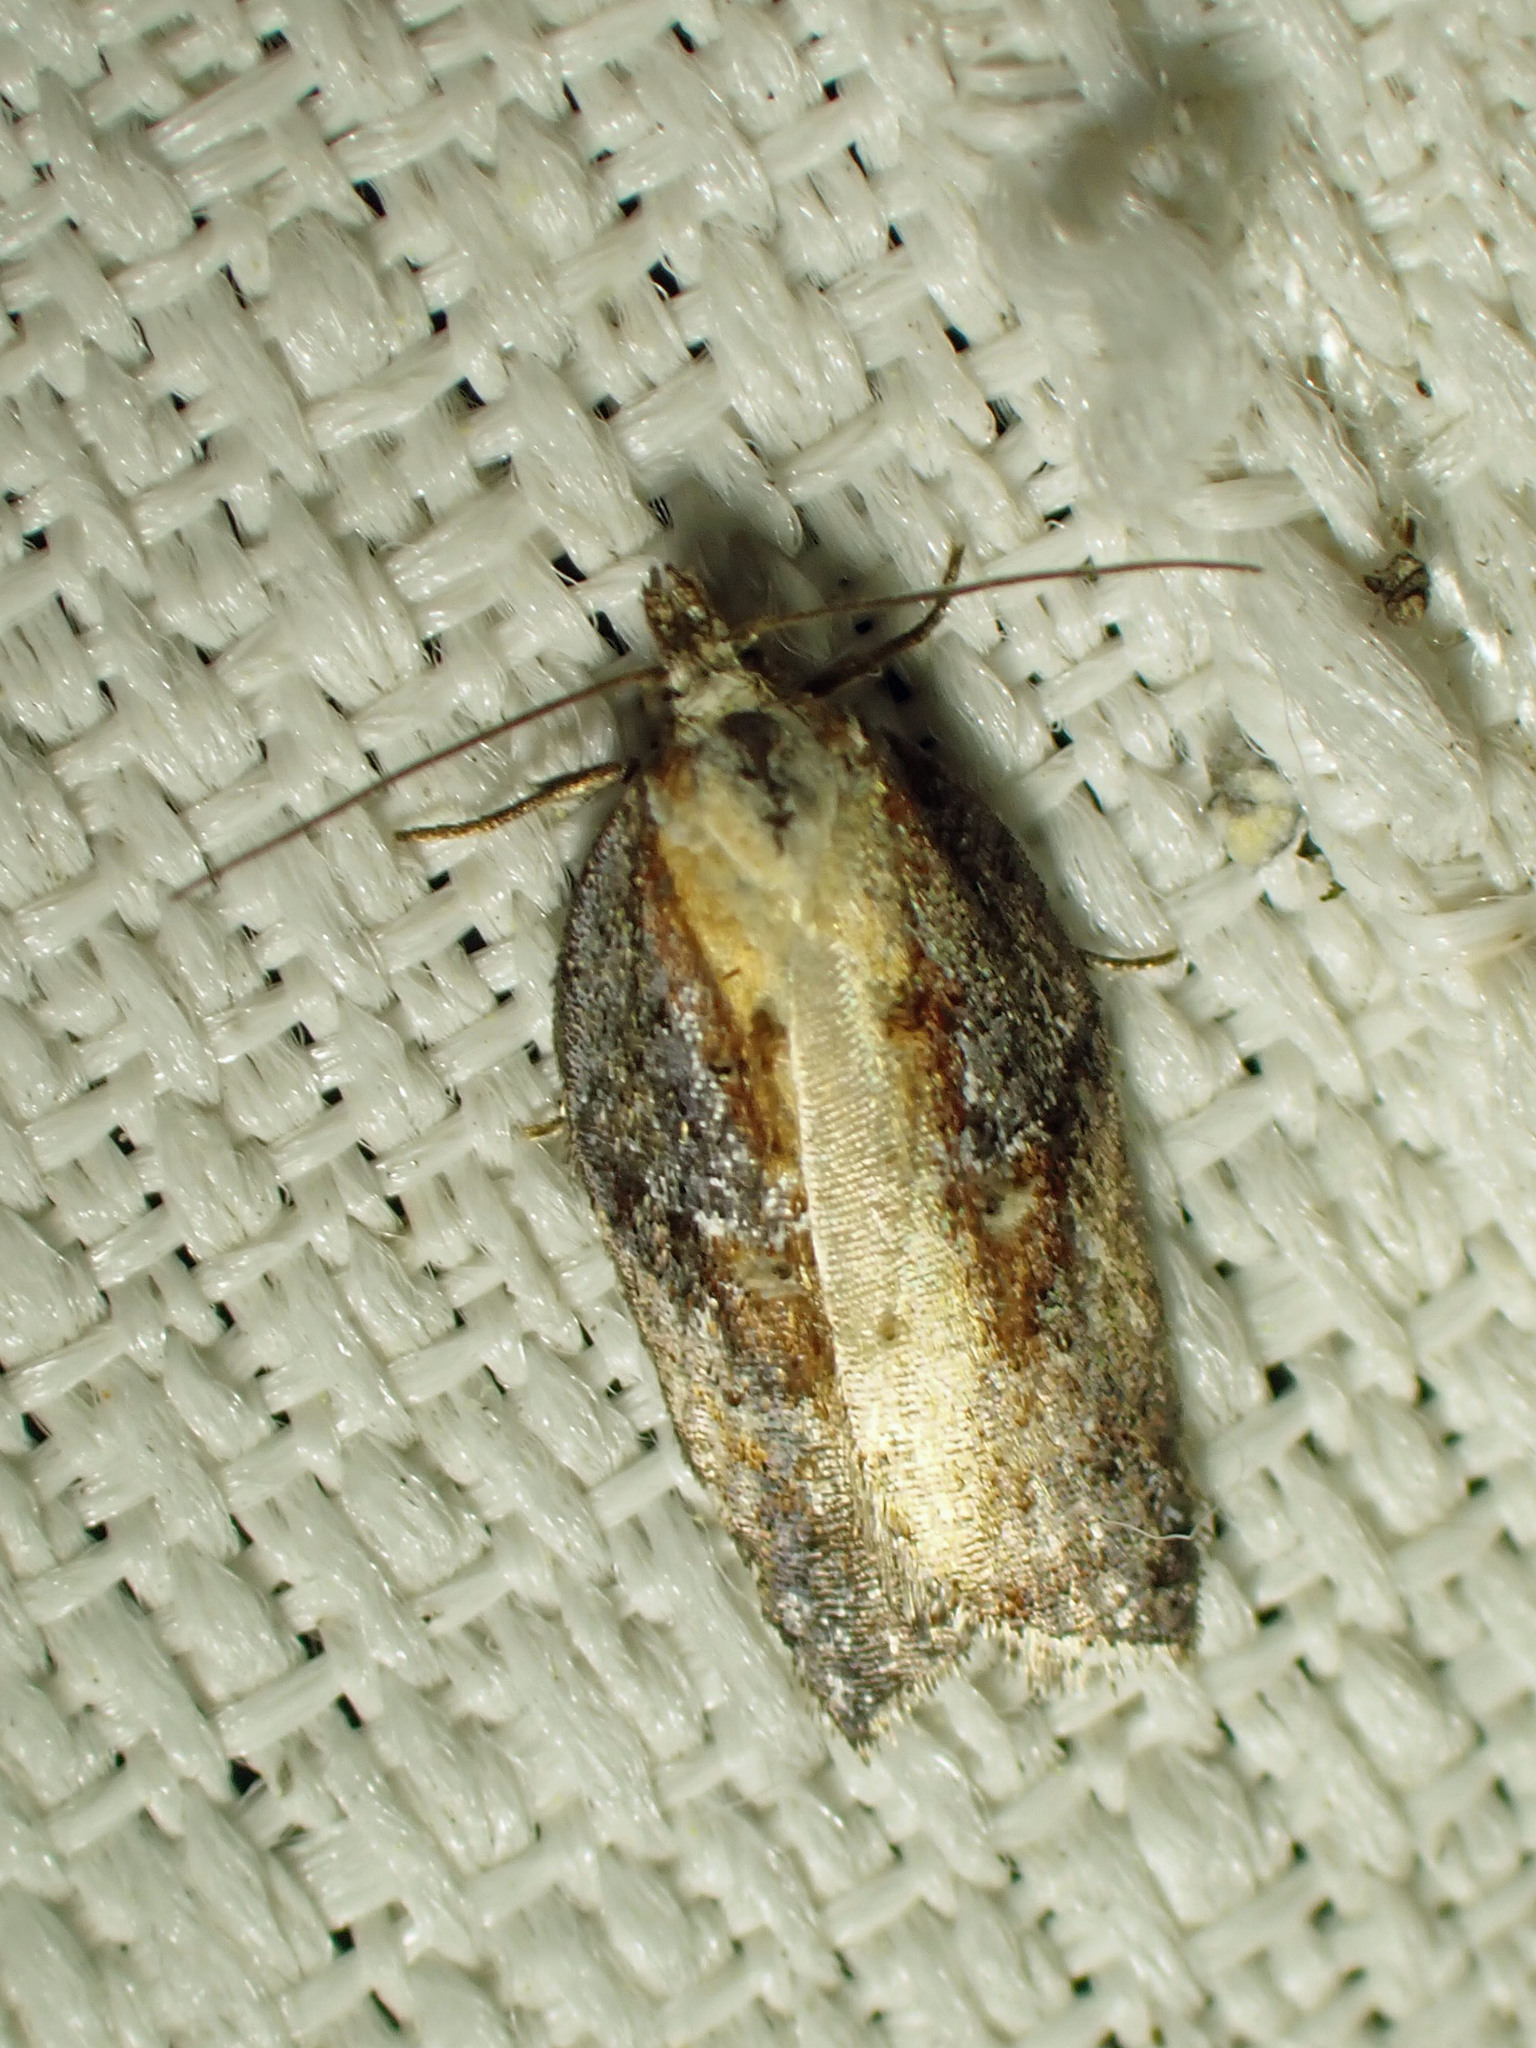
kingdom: Animalia
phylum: Arthropoda
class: Insecta
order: Lepidoptera
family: Tortricidae
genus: Acleris
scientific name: Acleris robinsoniana
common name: Robinson's acleris moth
